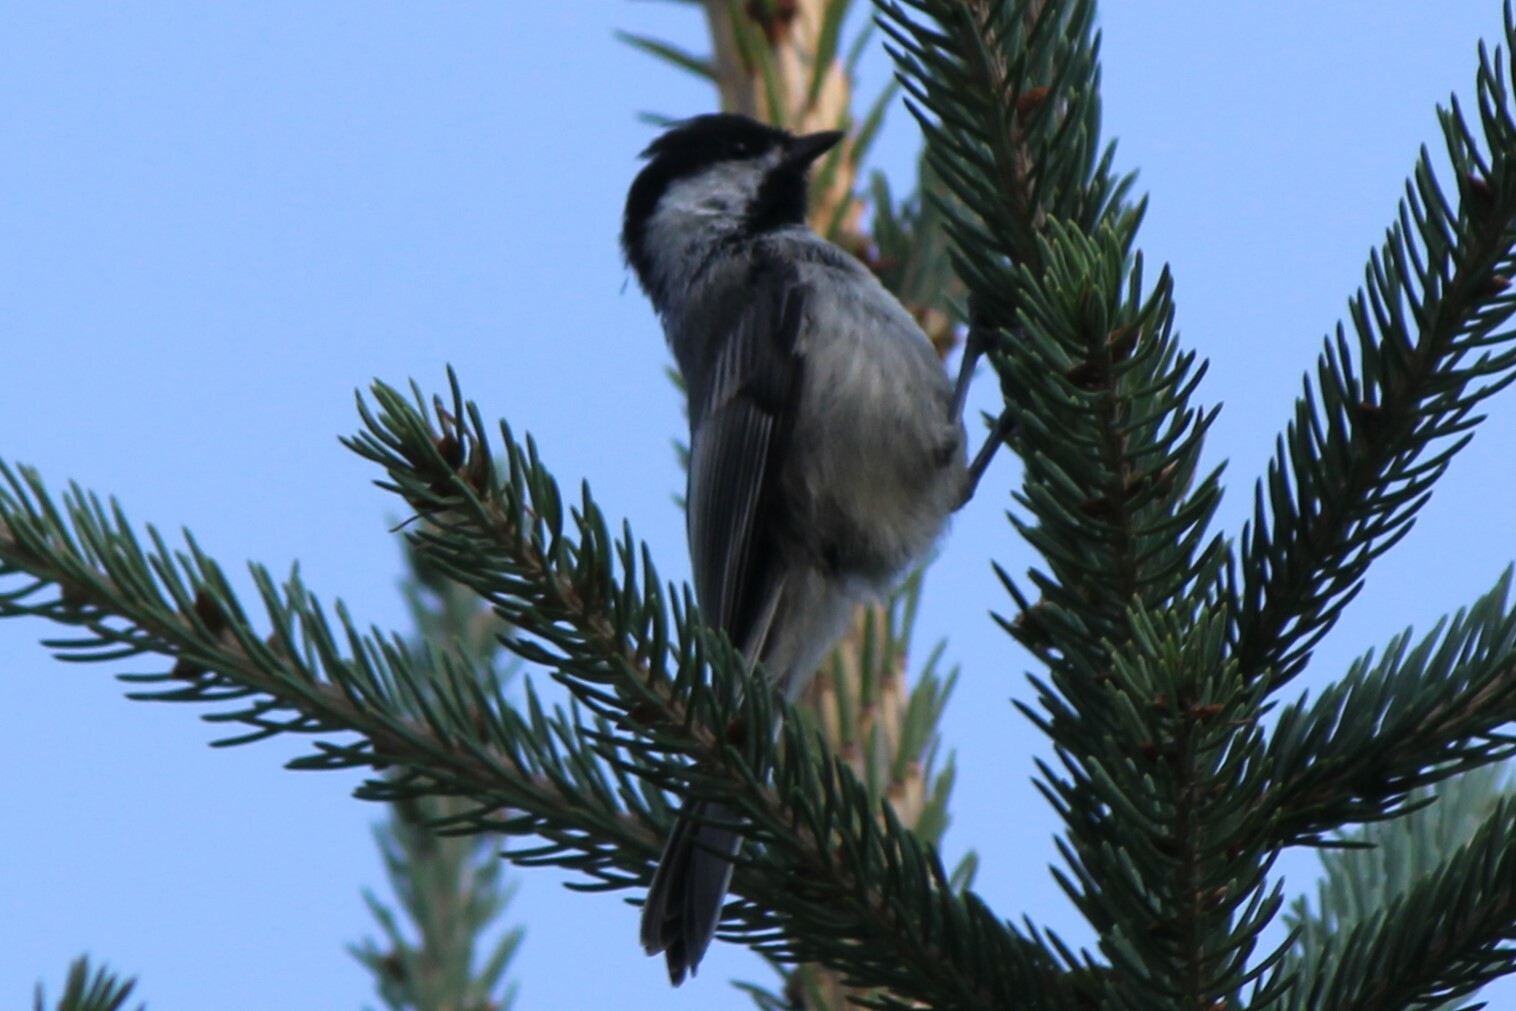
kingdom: Animalia
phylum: Chordata
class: Aves
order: Passeriformes
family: Paridae
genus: Poecile
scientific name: Poecile atricapillus
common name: Black-capped chickadee
